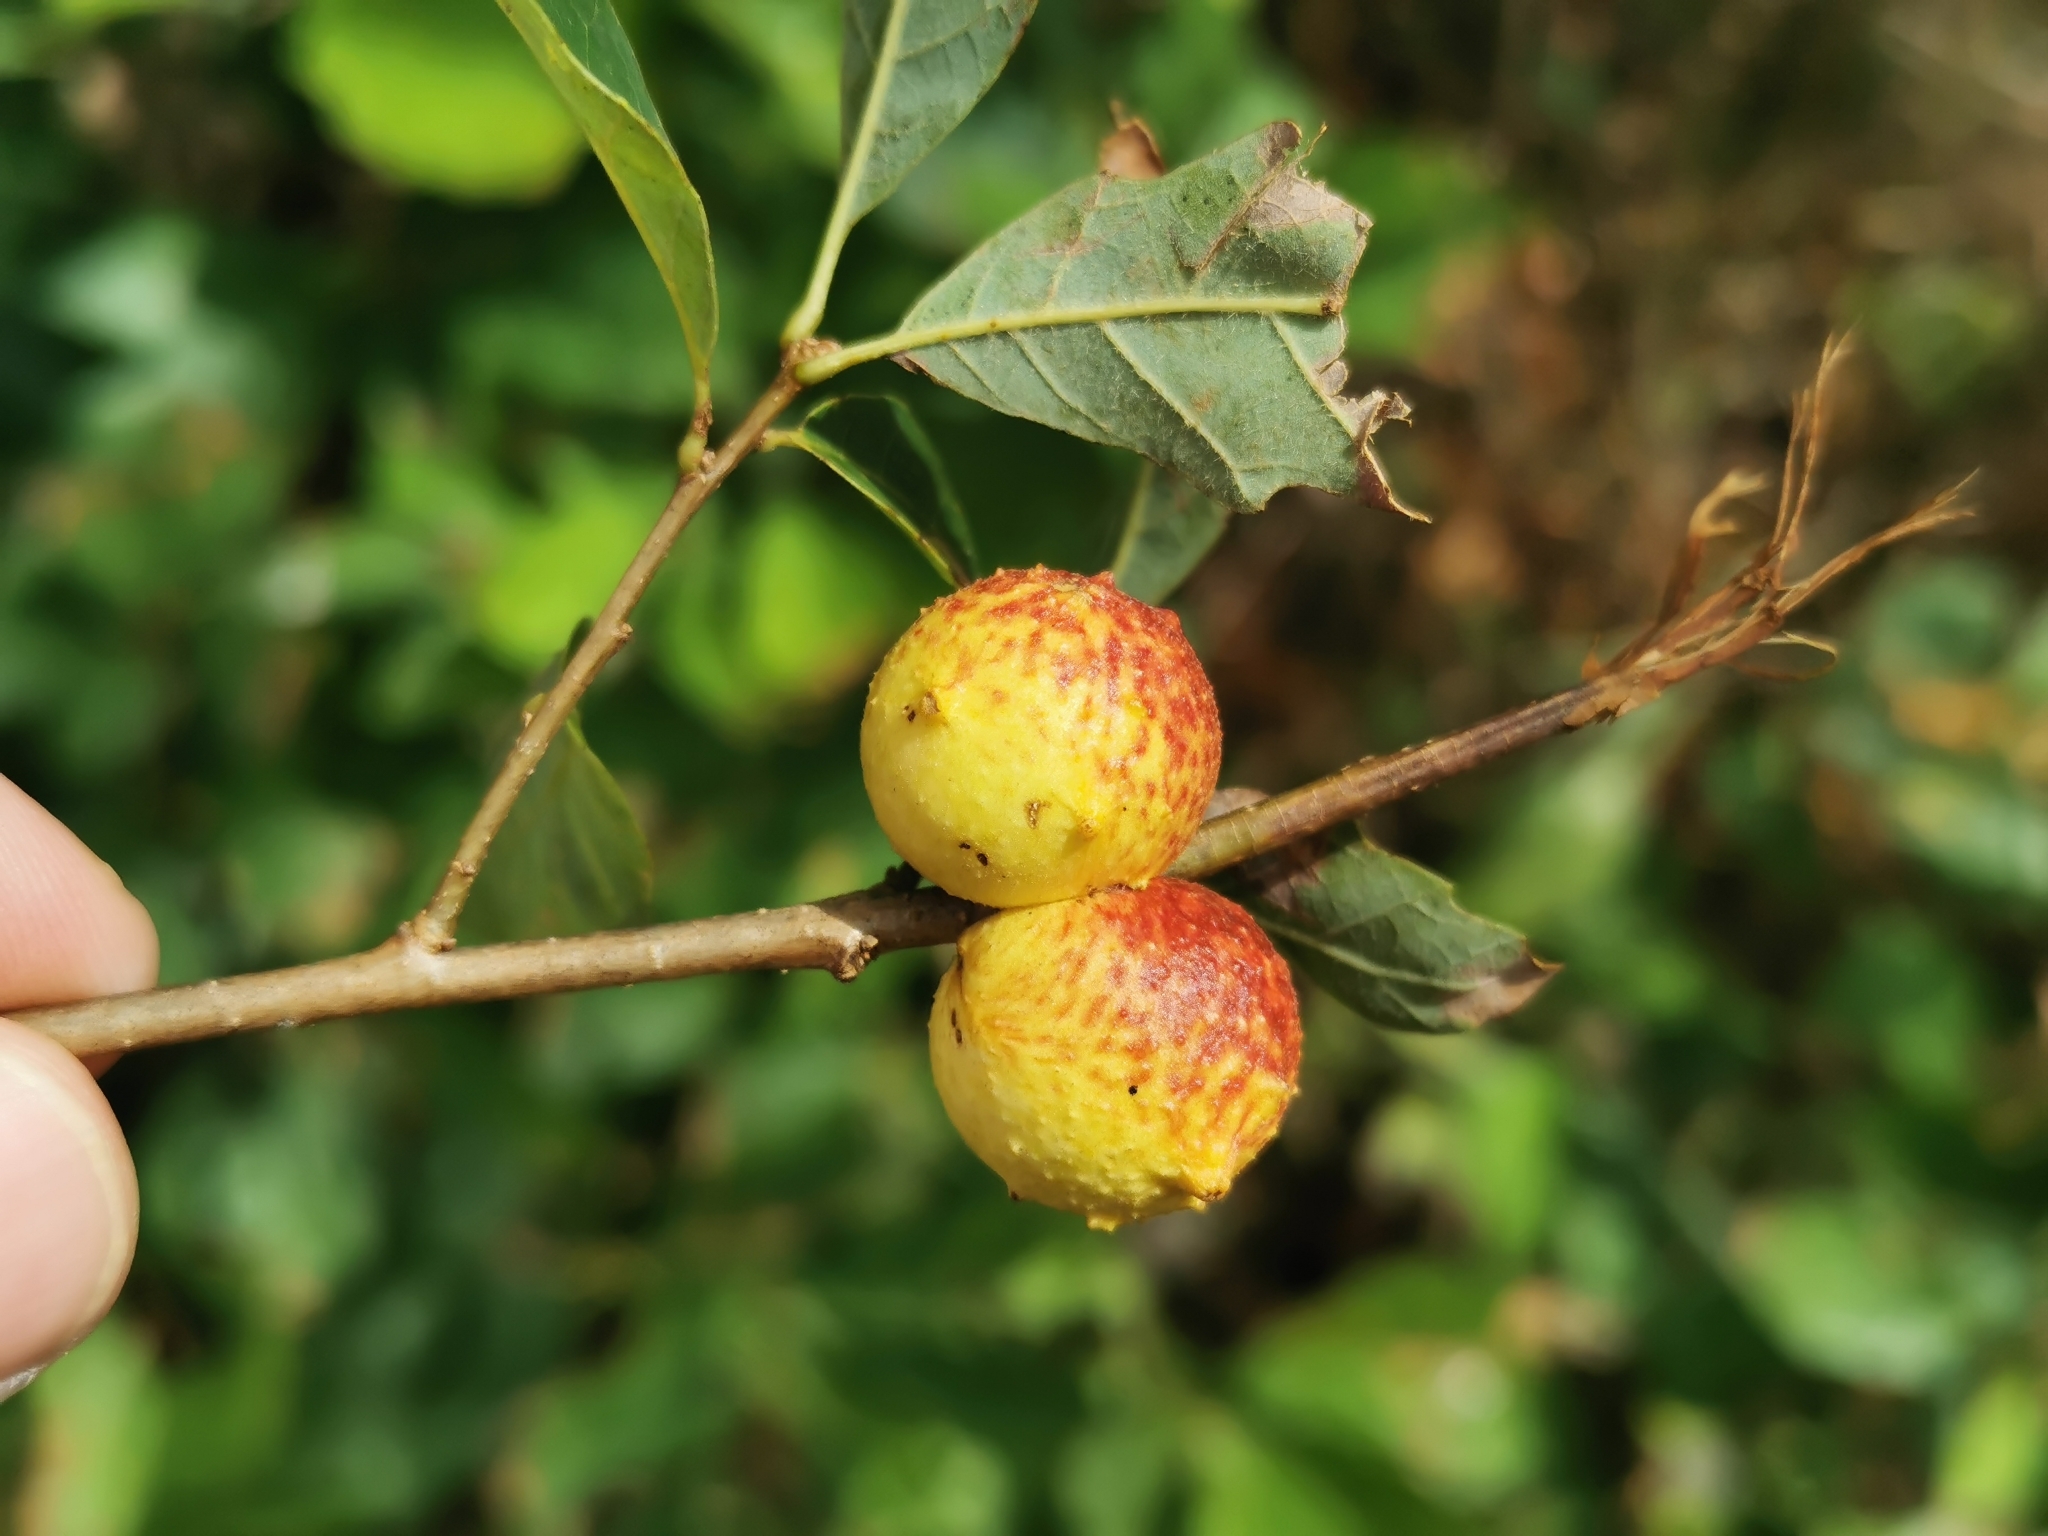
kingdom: Animalia
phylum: Arthropoda
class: Insecta
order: Hymenoptera
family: Cynipidae
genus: Disholcaspis
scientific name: Disholcaspis quercusglobulus
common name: Round bullet gall wasp
